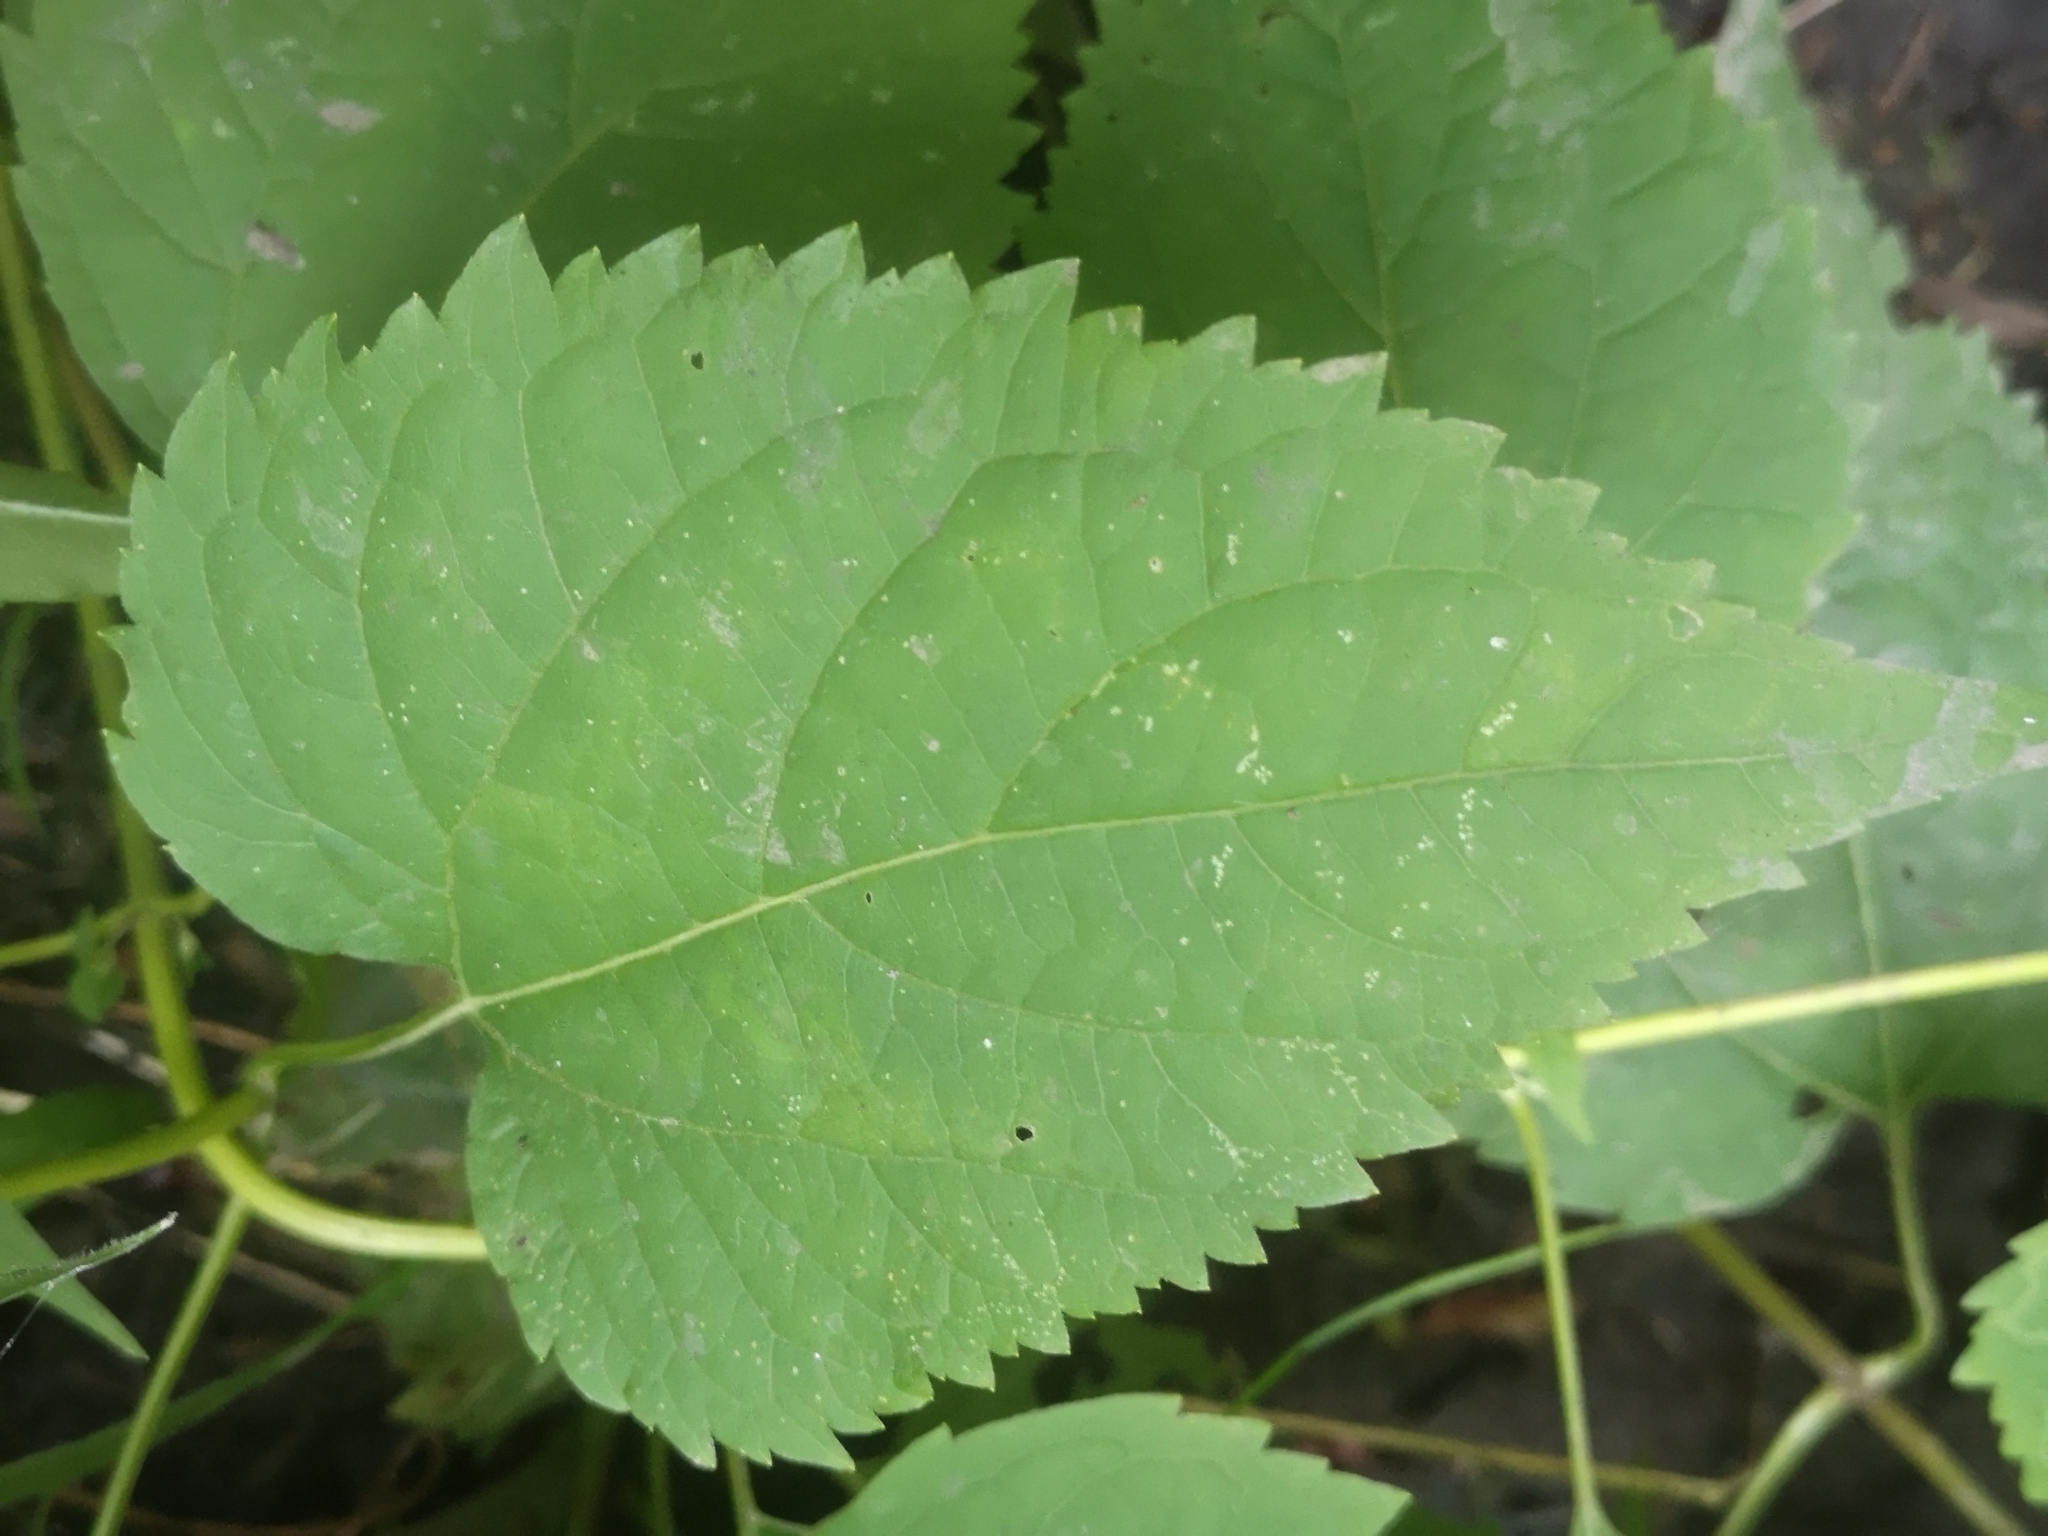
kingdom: Plantae
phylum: Tracheophyta
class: Magnoliopsida
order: Asterales
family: Asteraceae
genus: Ageratina
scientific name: Ageratina altissima
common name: White snakeroot
